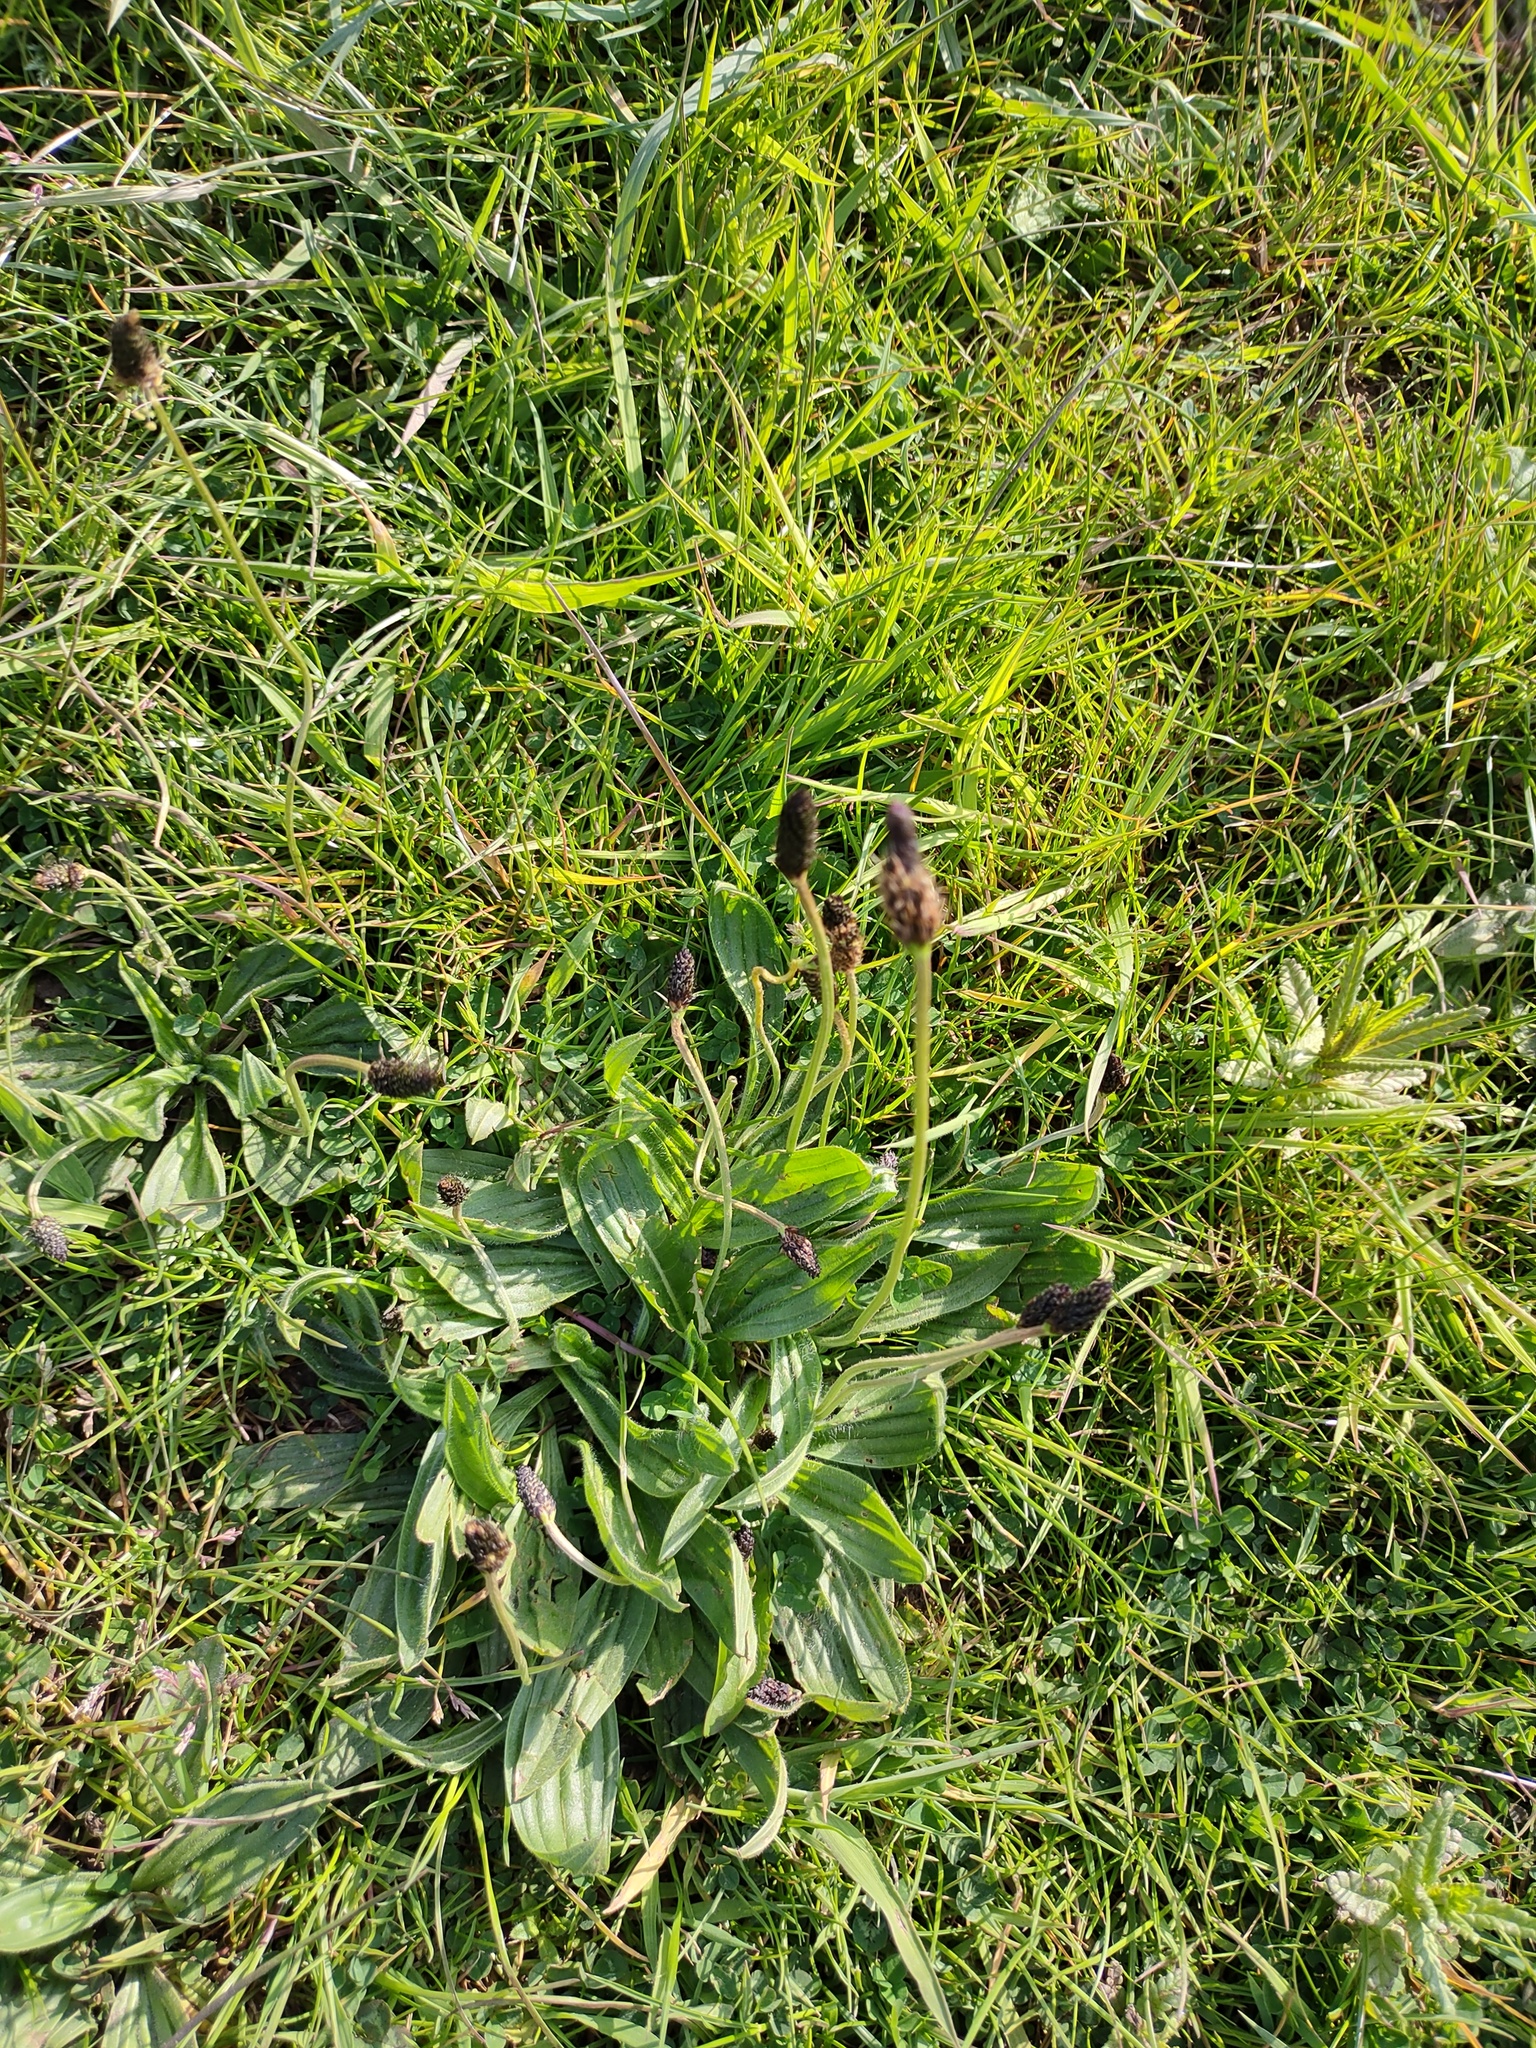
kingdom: Plantae
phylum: Tracheophyta
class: Magnoliopsida
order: Lamiales
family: Plantaginaceae
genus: Plantago
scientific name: Plantago lanceolata
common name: Ribwort plantain
